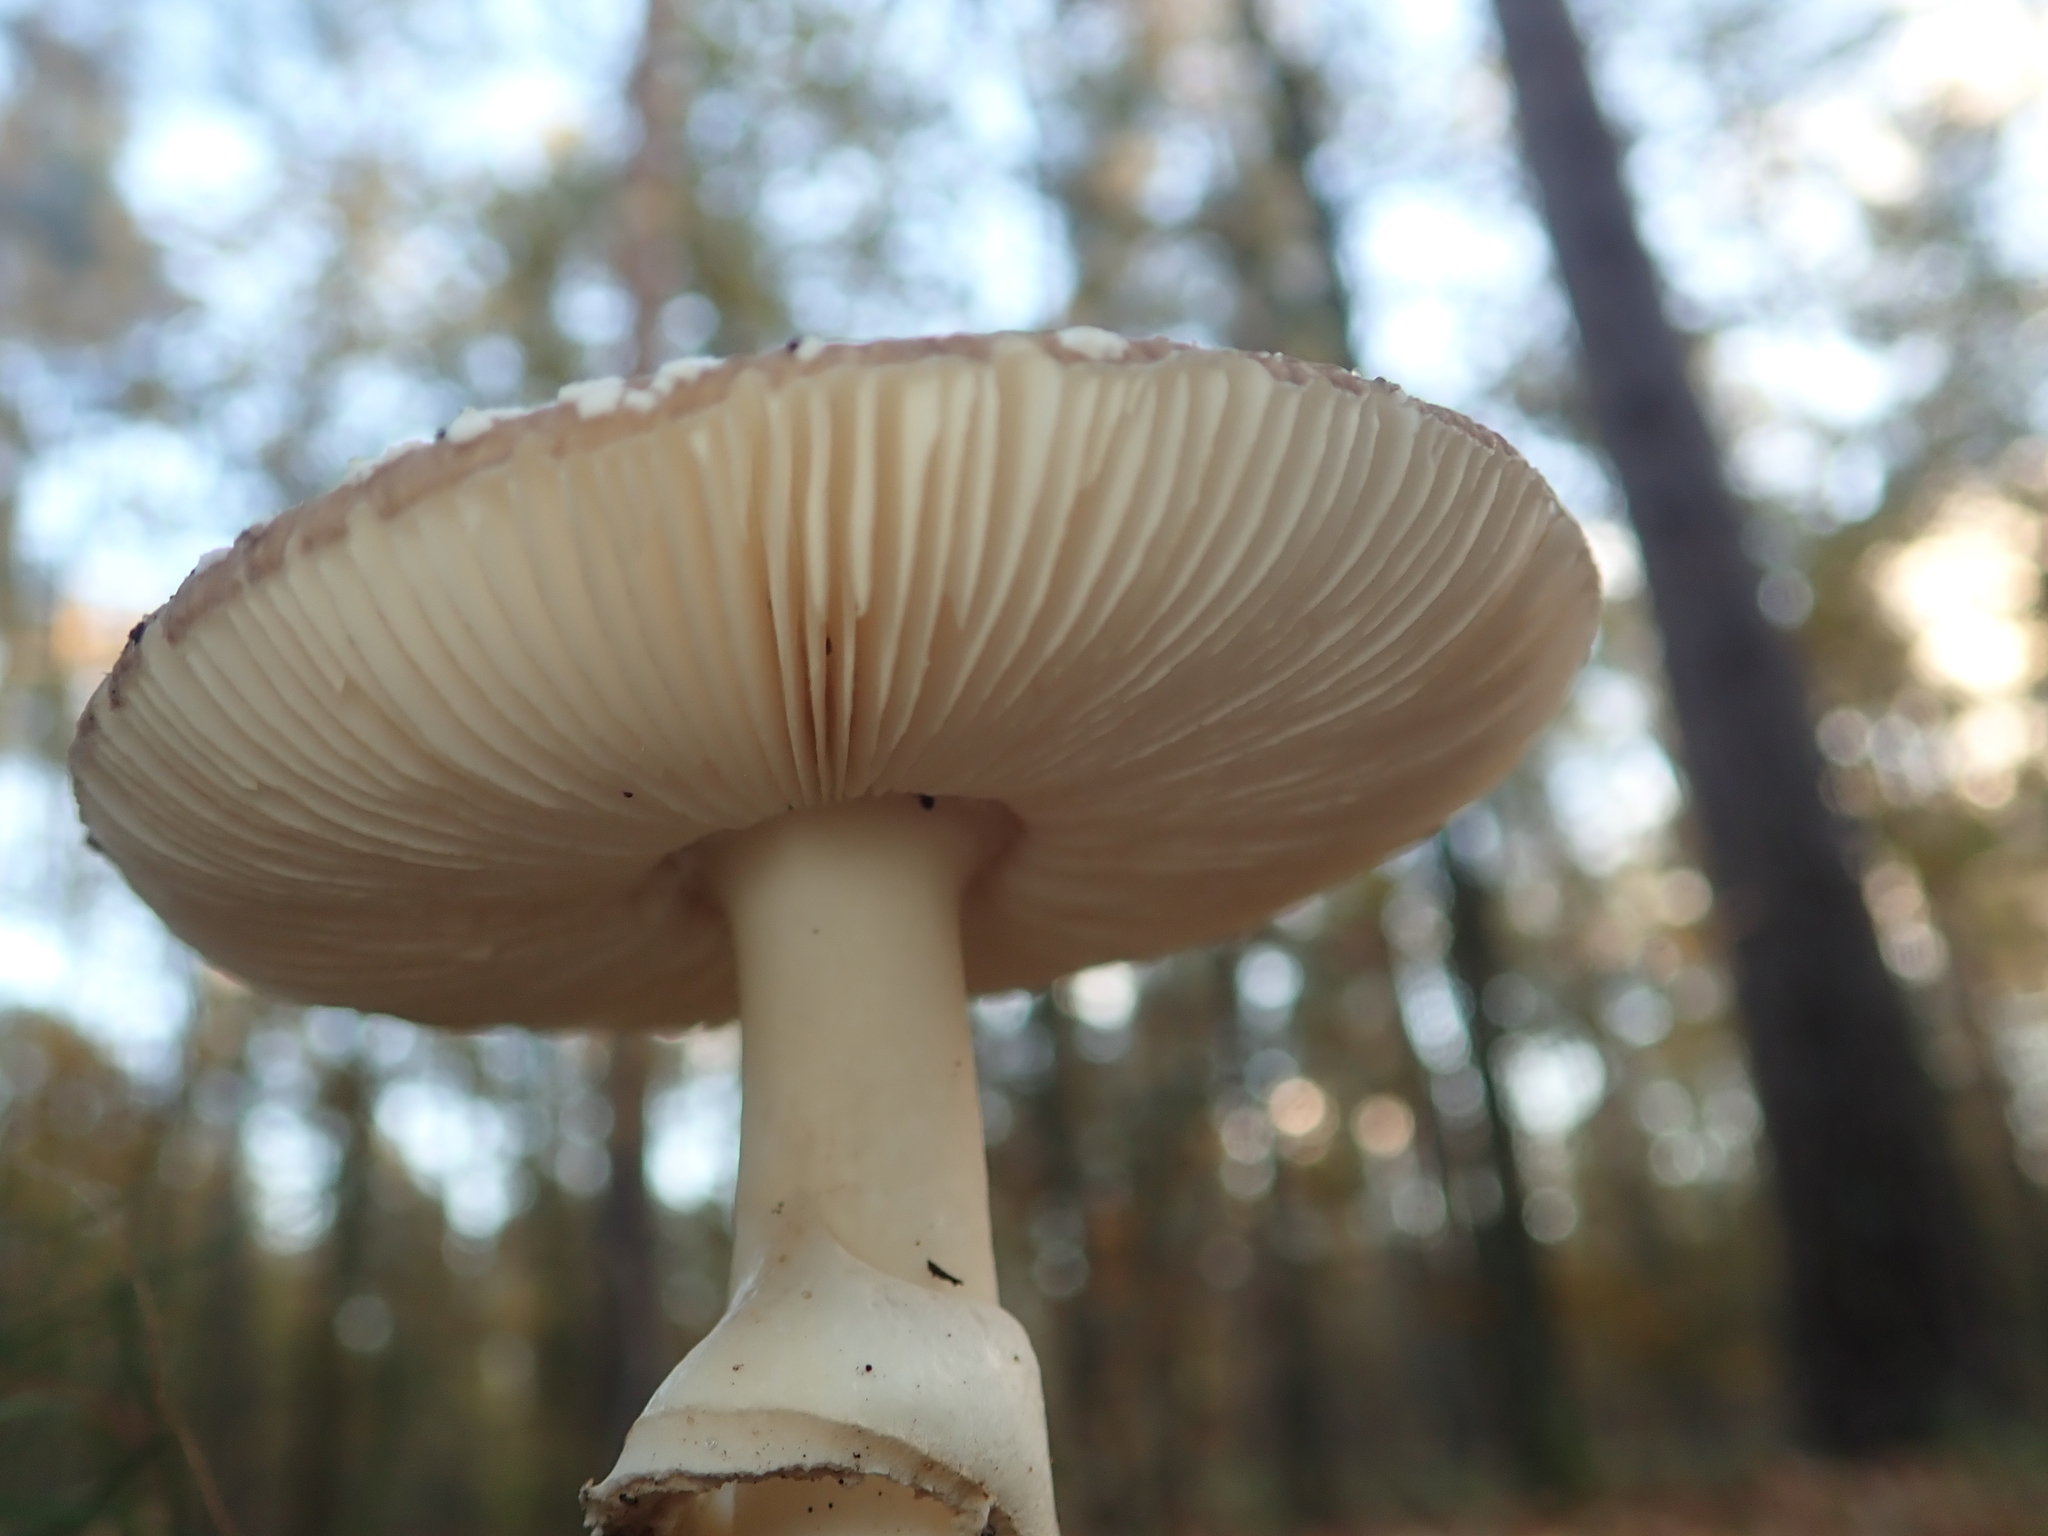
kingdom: Fungi
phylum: Basidiomycota
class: Agaricomycetes
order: Agaricales
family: Amanitaceae
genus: Amanita
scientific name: Amanita pantherina
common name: Panthercap
